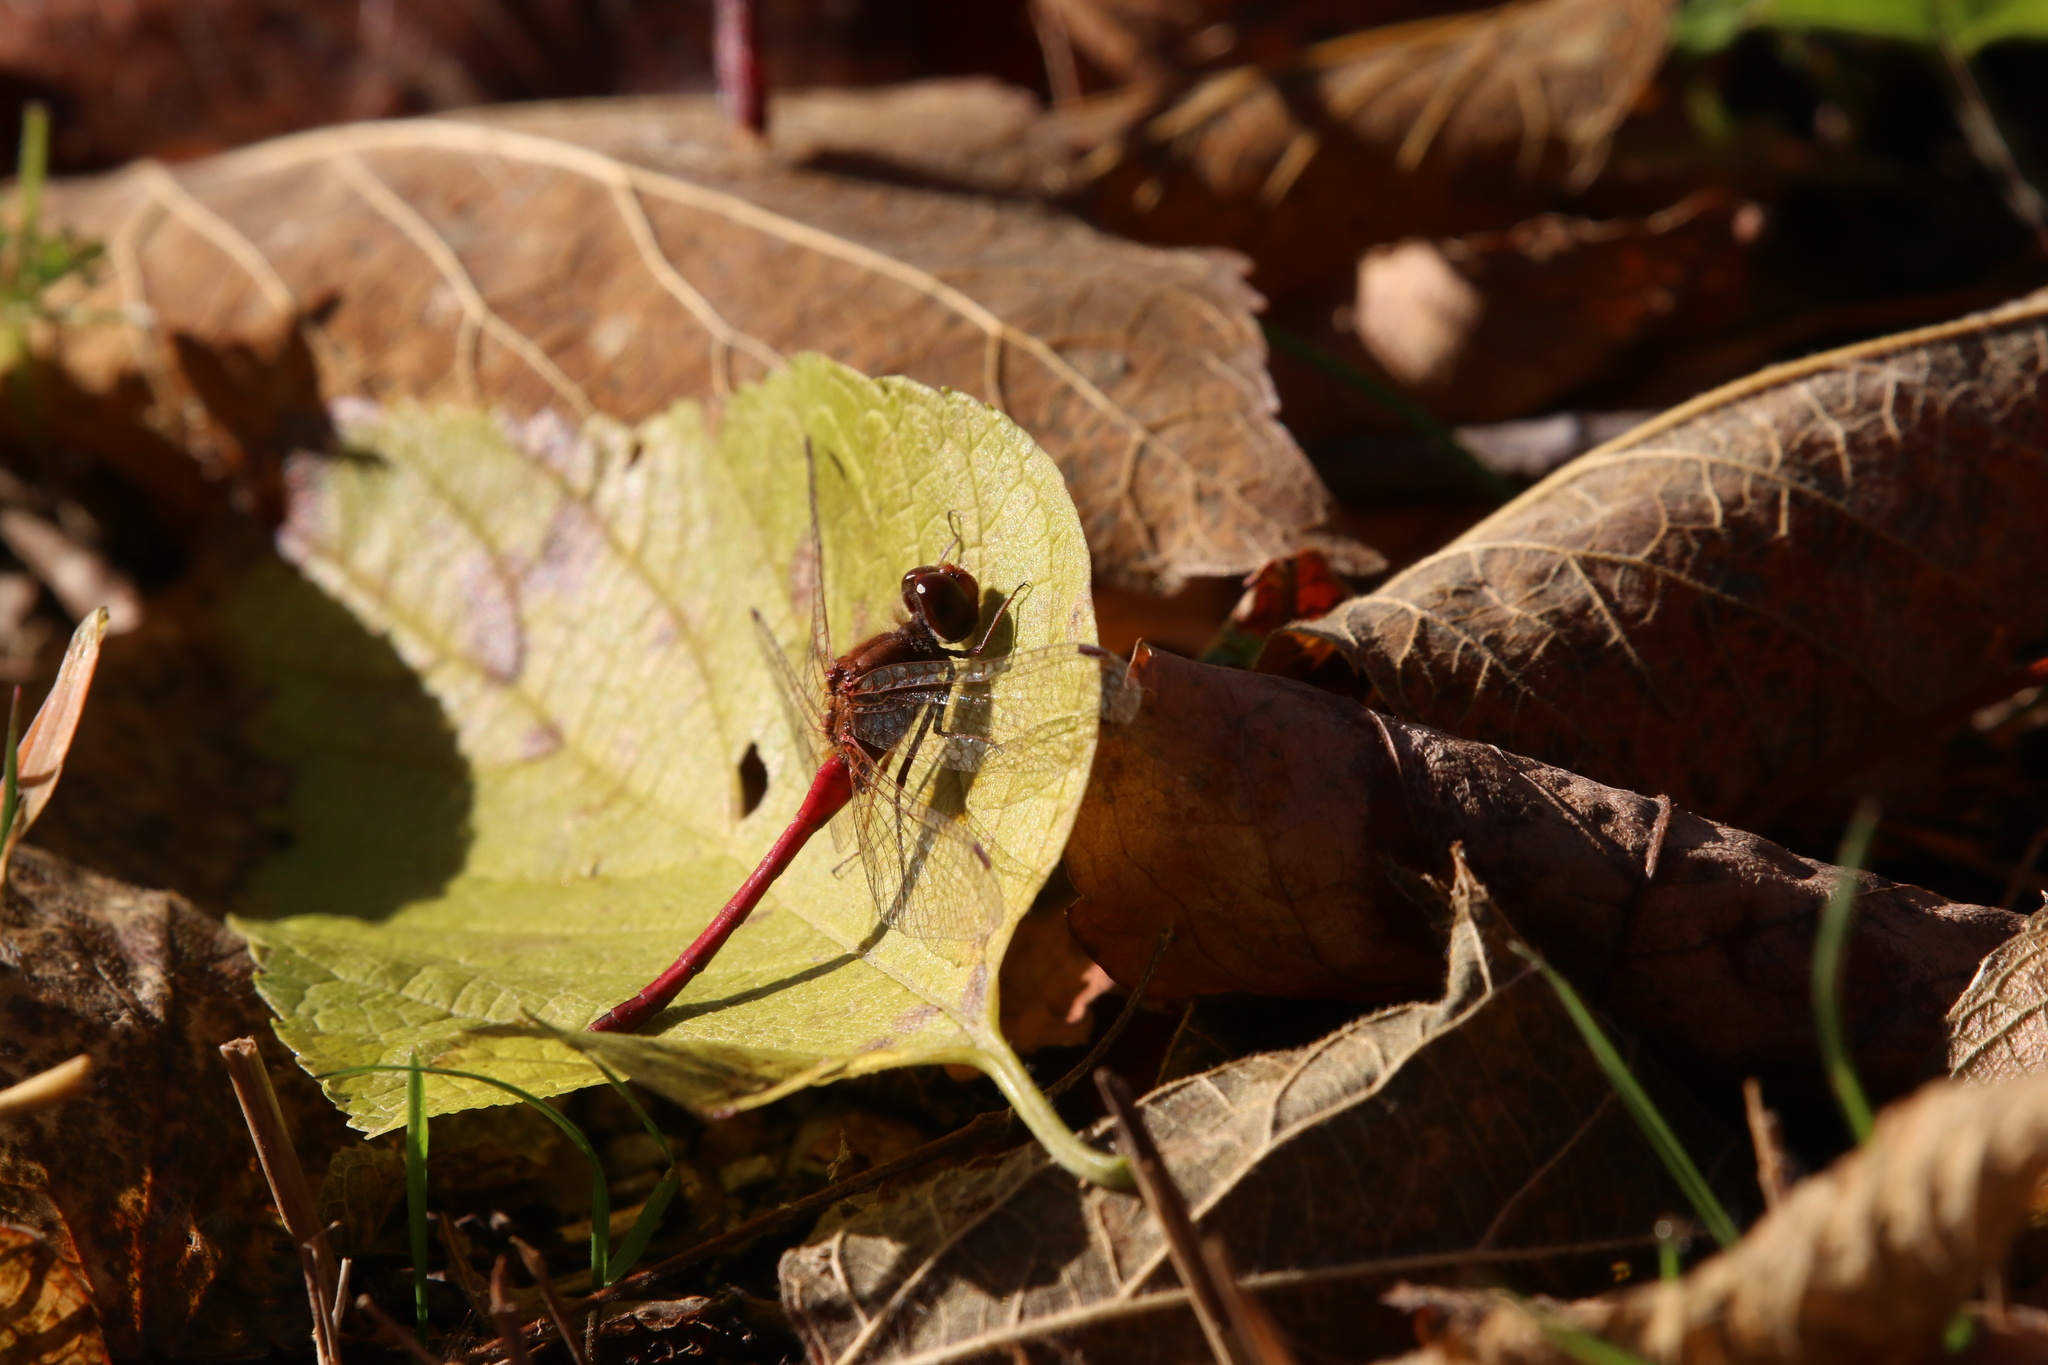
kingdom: Animalia
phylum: Arthropoda
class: Insecta
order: Odonata
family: Libellulidae
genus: Sympetrum
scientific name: Sympetrum vicinum
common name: Autumn meadowhawk
